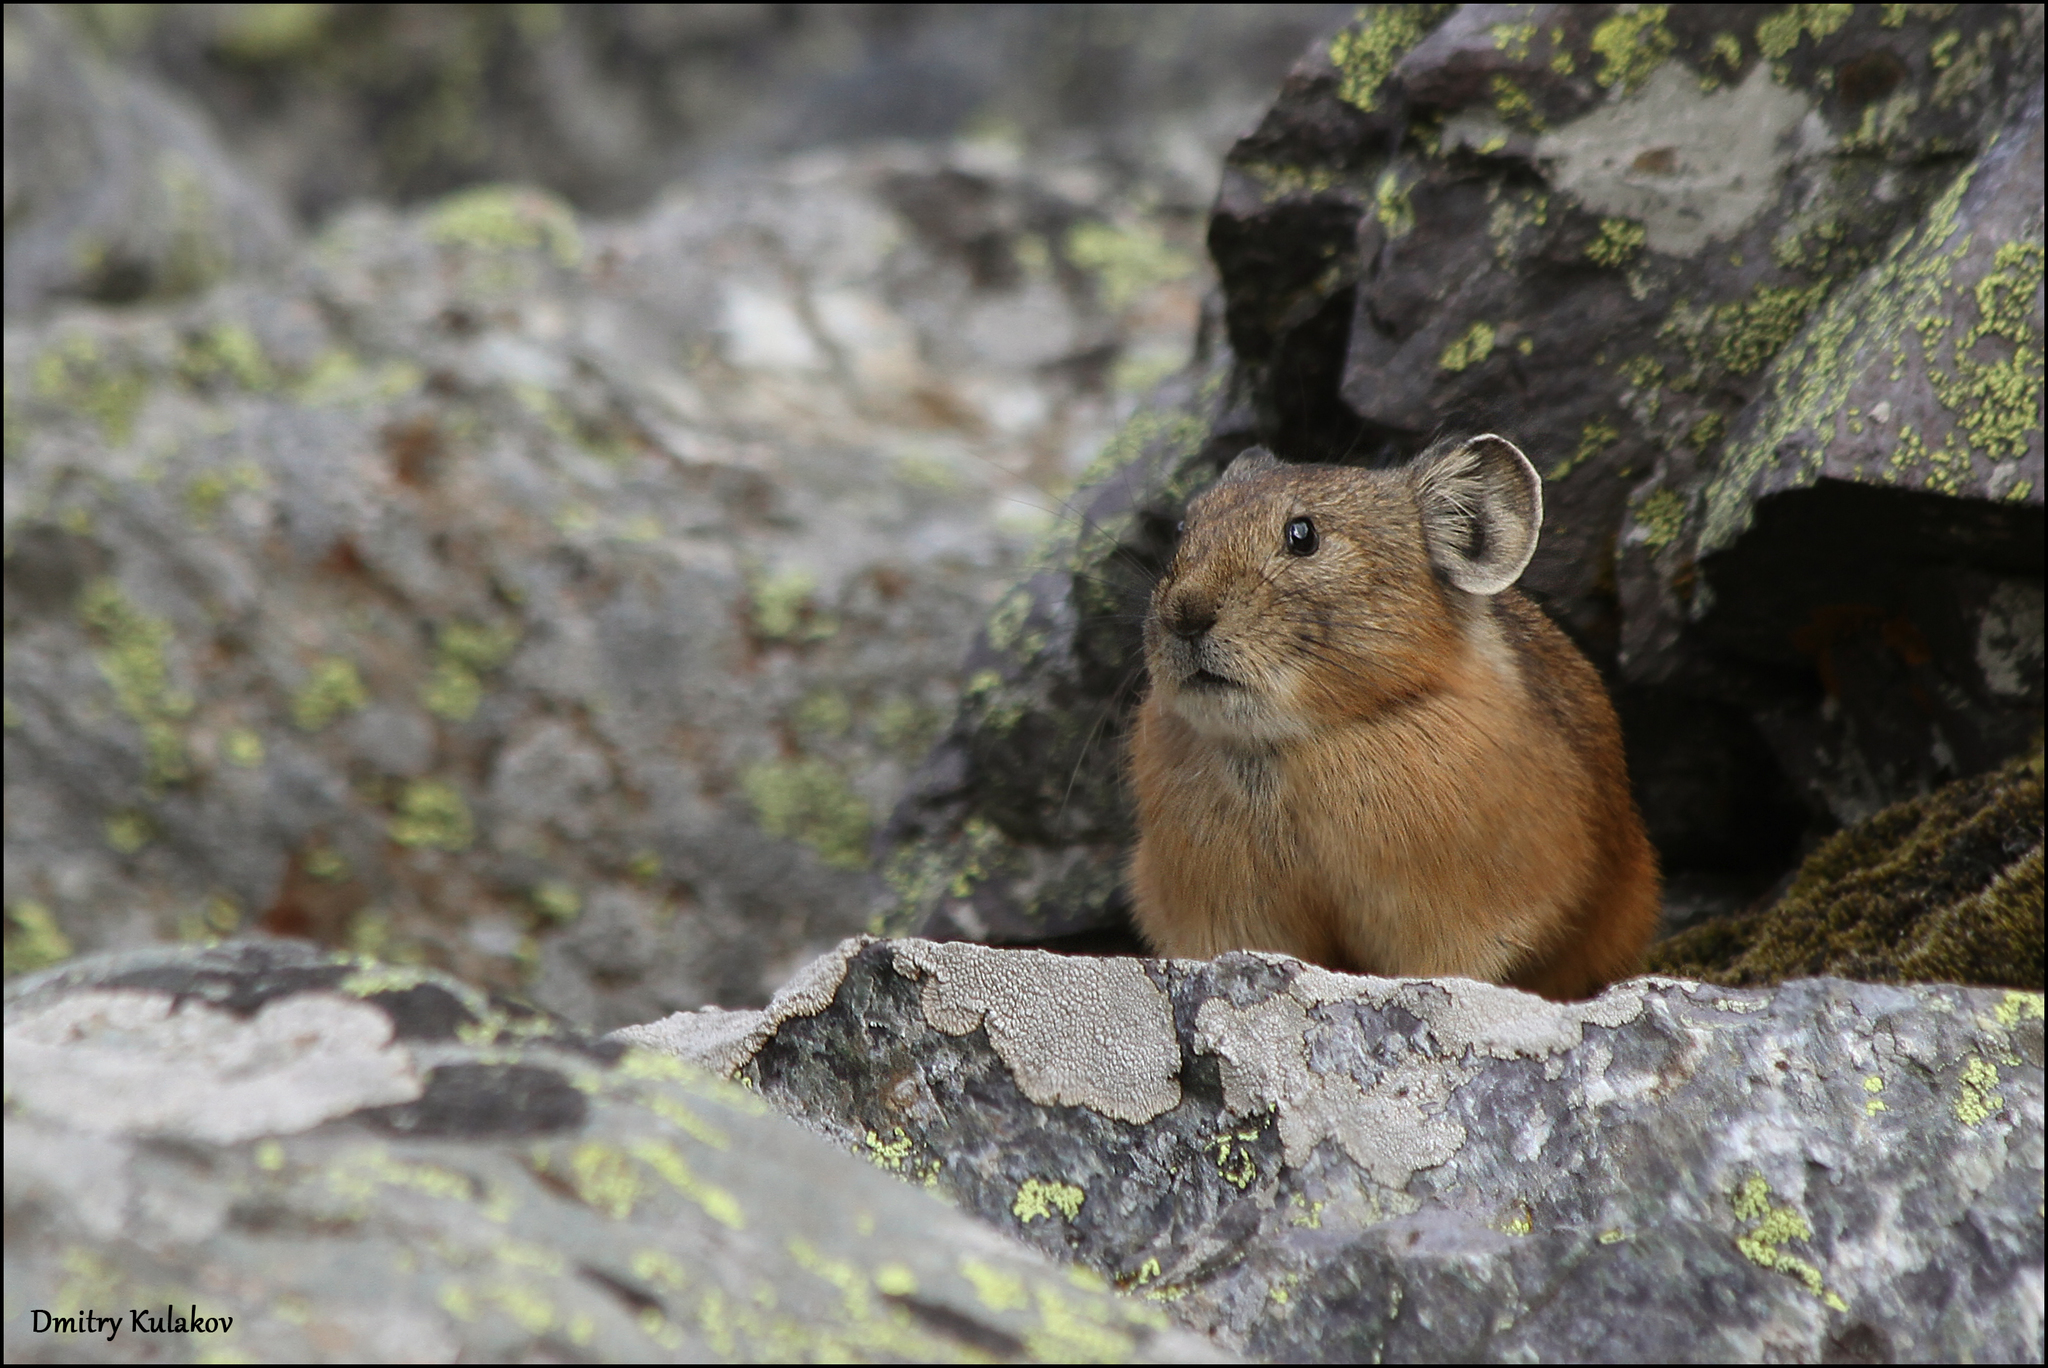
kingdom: Animalia
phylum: Chordata
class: Mammalia
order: Lagomorpha
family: Ochotonidae
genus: Ochotona
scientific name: Ochotona alpina
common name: Alpine pika
